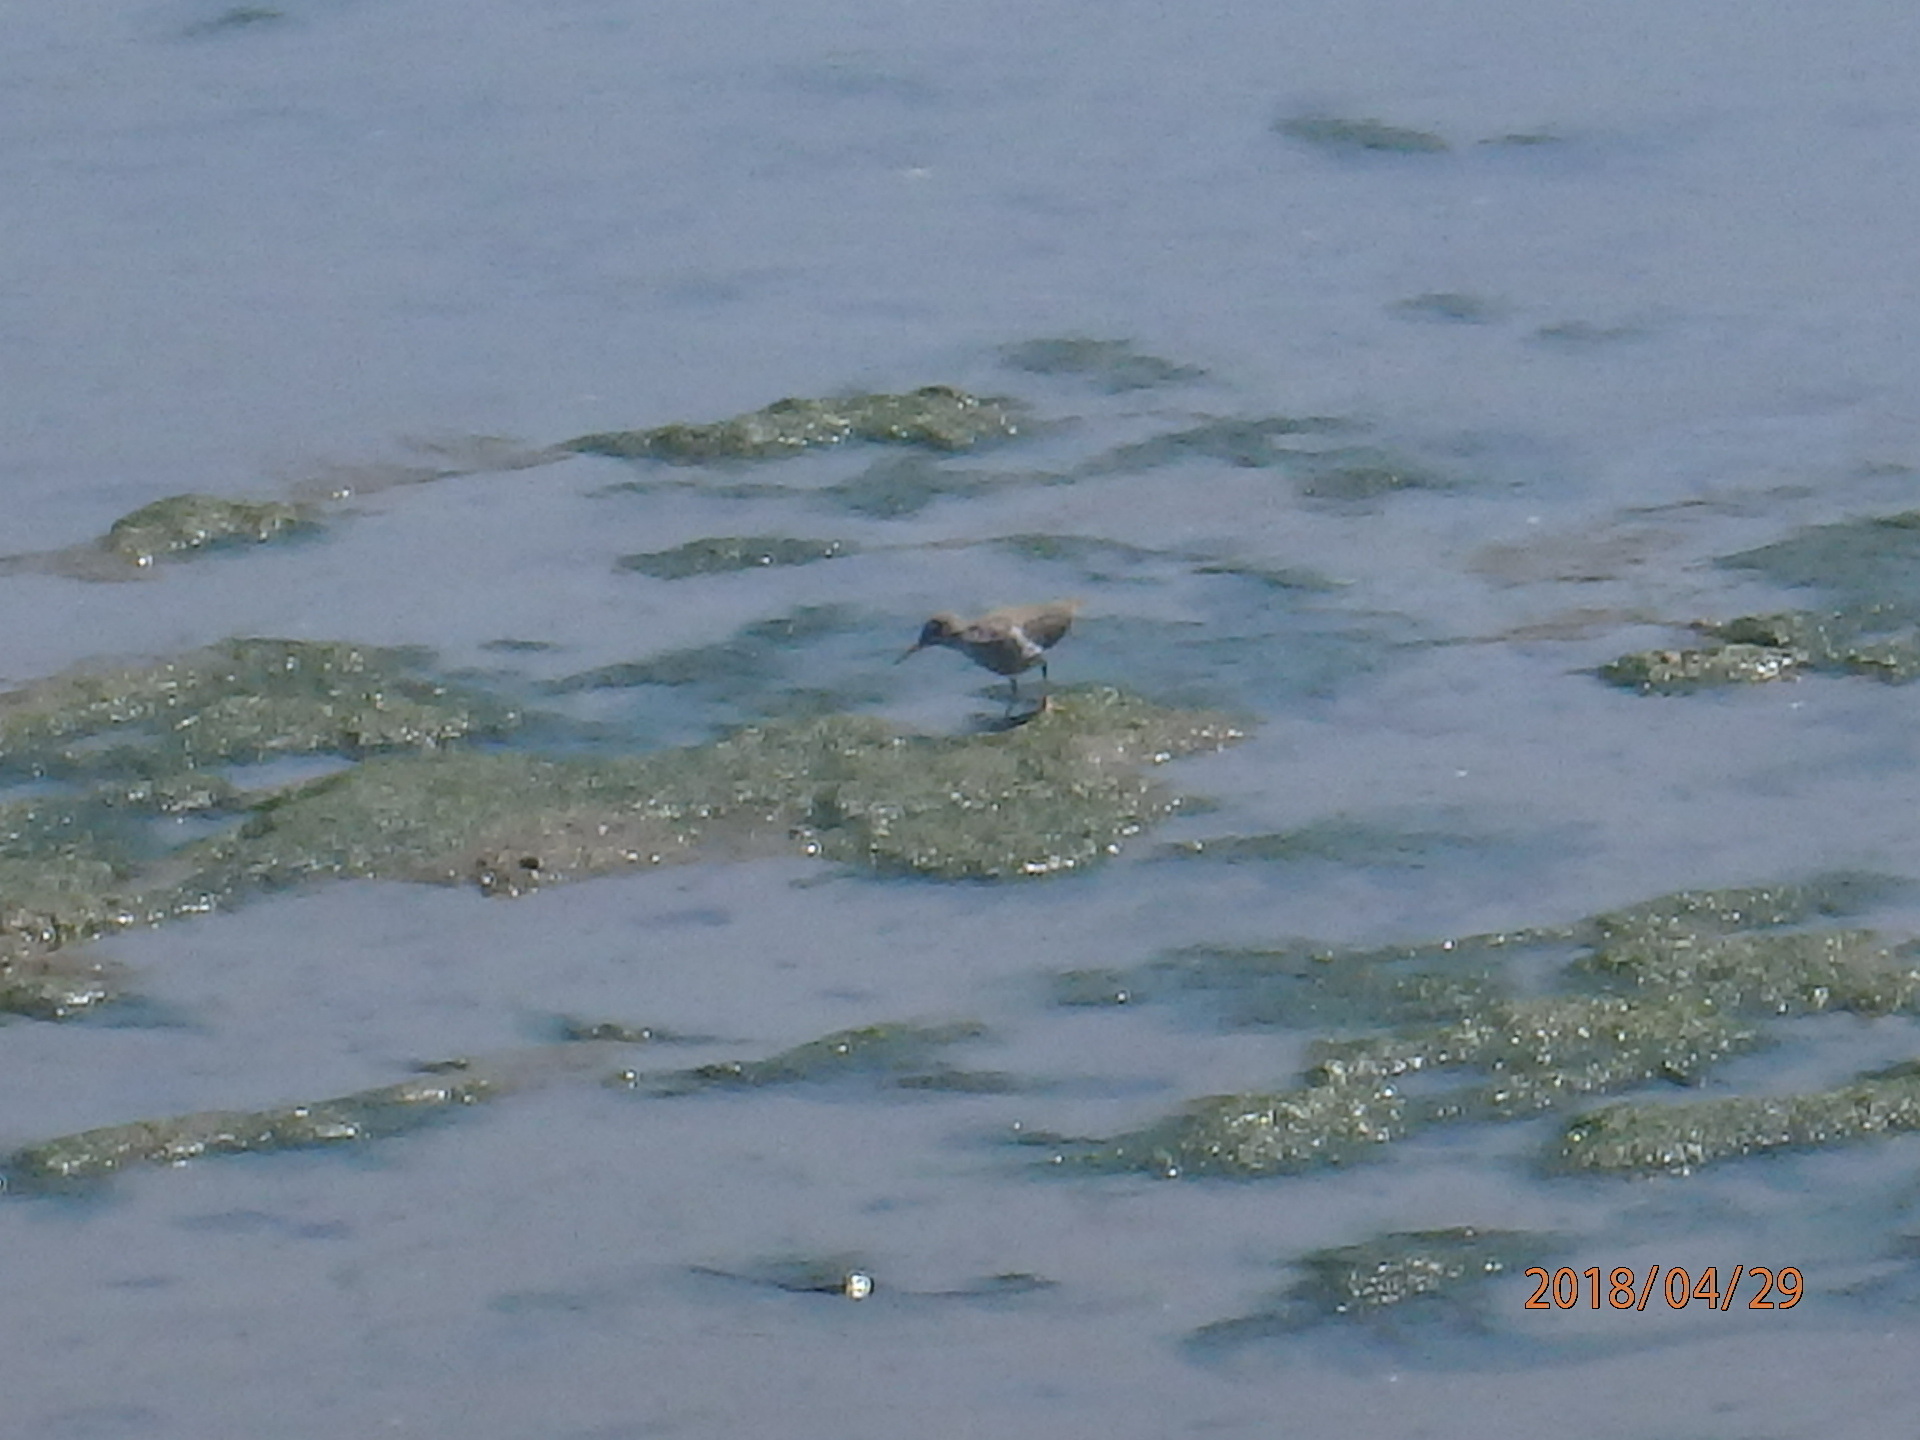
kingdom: Animalia
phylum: Chordata
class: Aves
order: Charadriiformes
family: Scolopacidae
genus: Actitis
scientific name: Actitis macularius
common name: Spotted sandpiper
